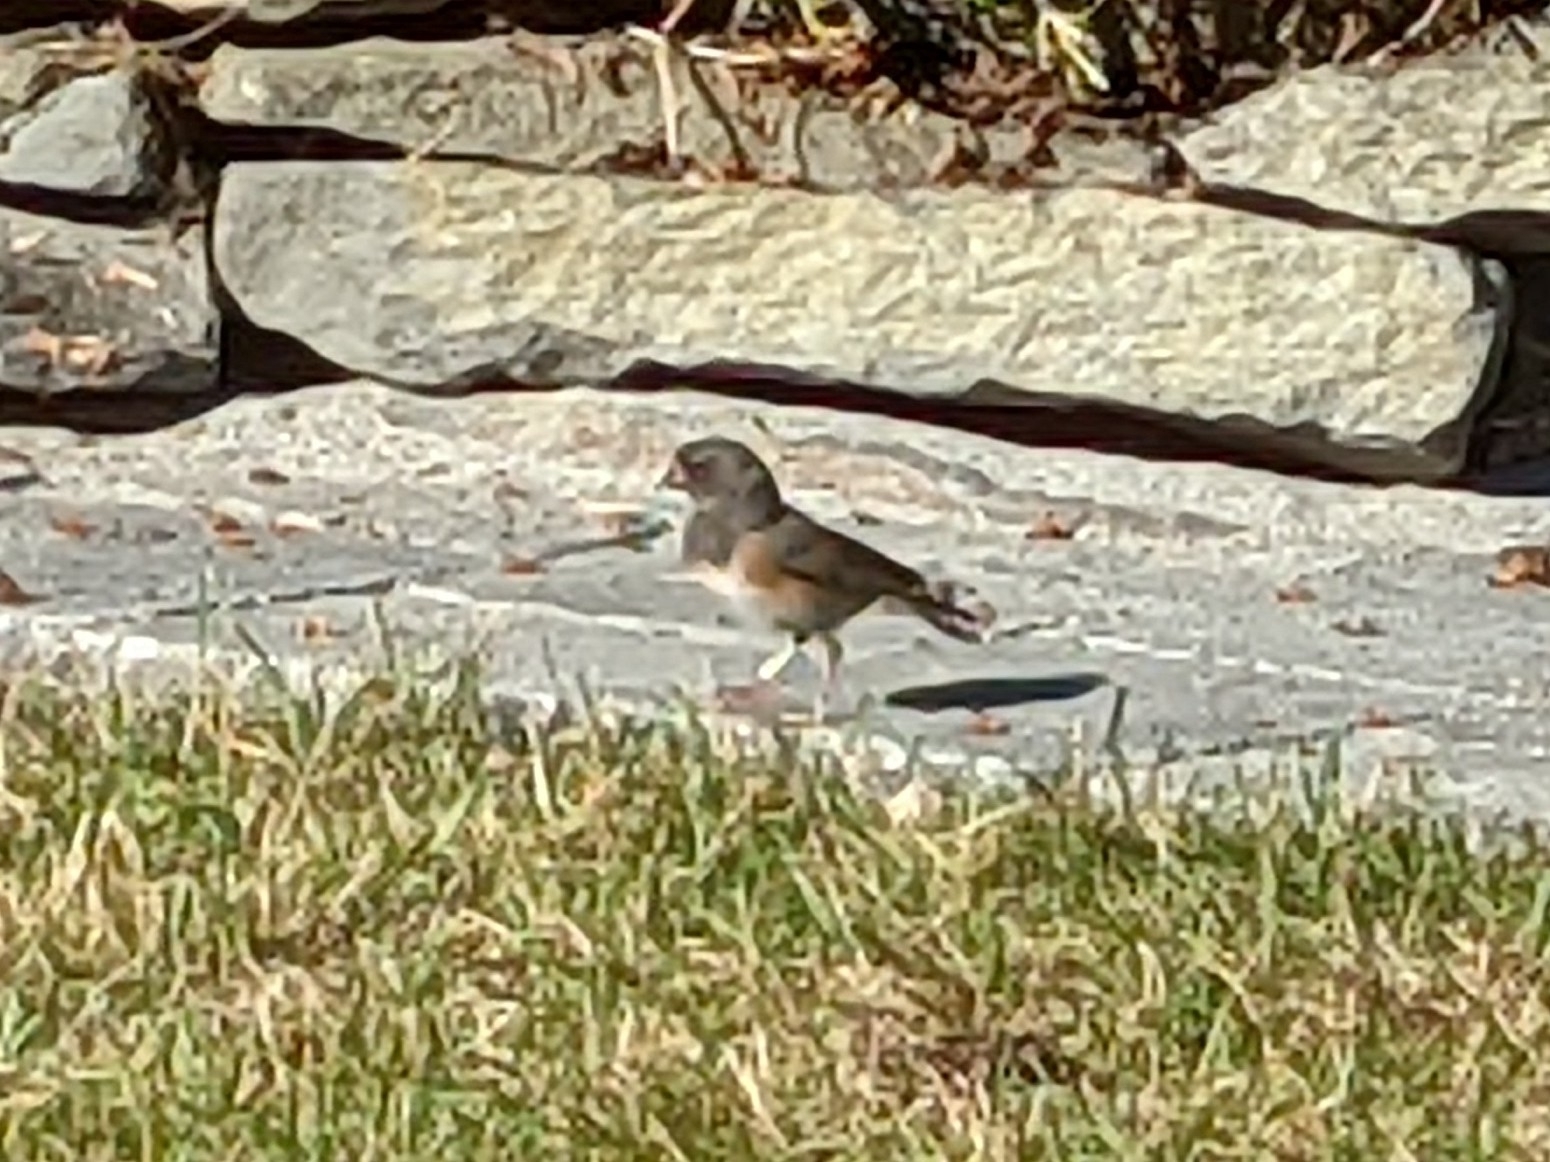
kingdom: Animalia
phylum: Chordata
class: Aves
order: Passeriformes
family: Passerellidae
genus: Junco
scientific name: Junco hyemalis
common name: Dark-eyed junco
